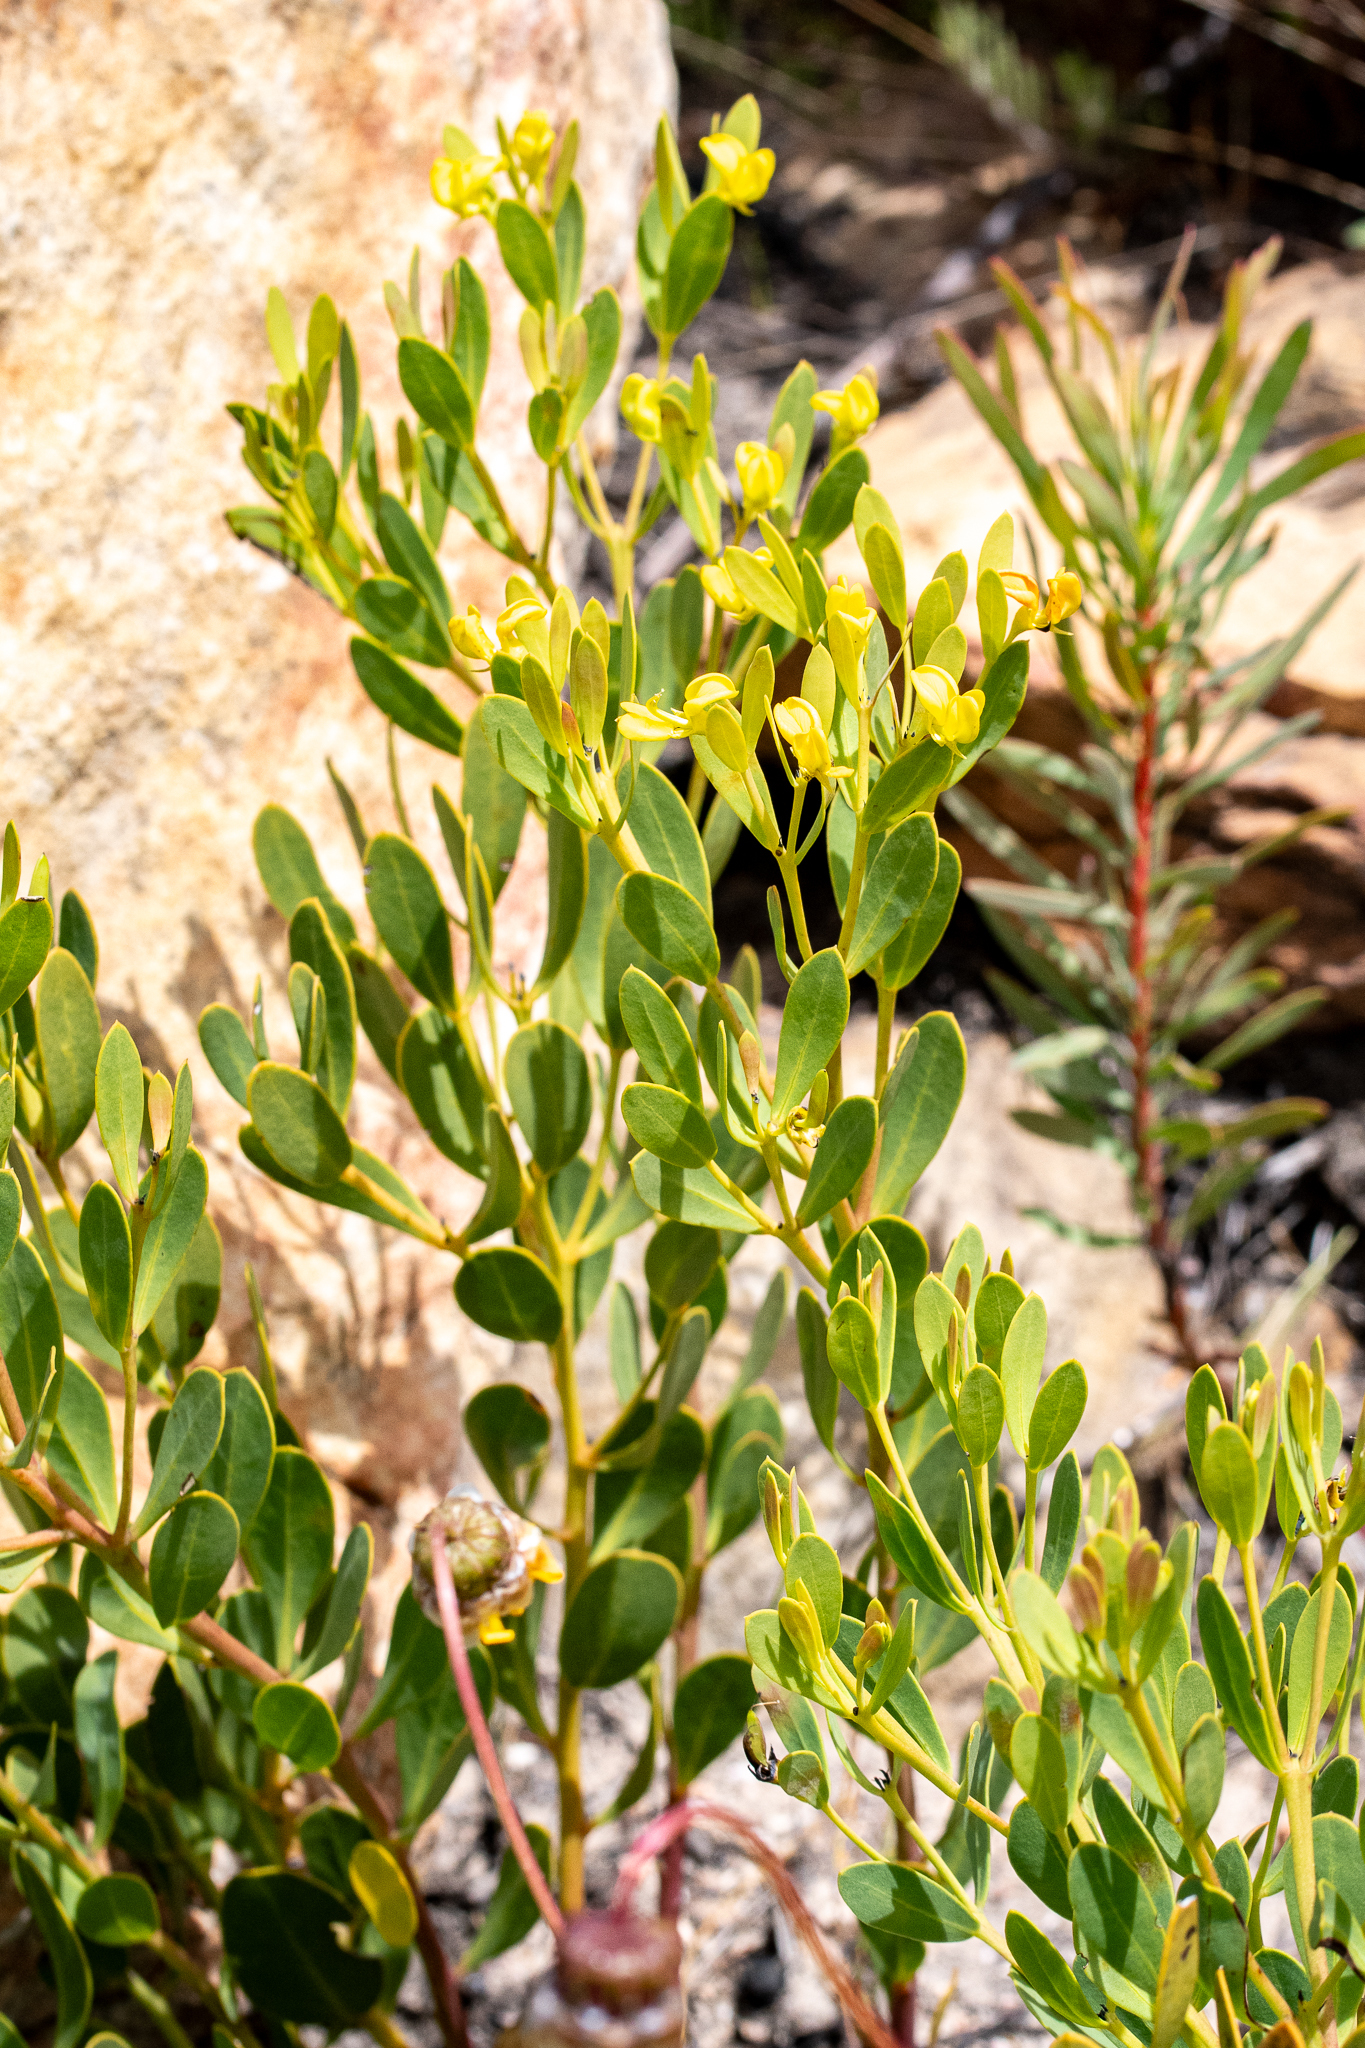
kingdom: Plantae
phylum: Tracheophyta
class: Magnoliopsida
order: Fabales
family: Fabaceae
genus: Rafnia
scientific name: Rafnia capensis
